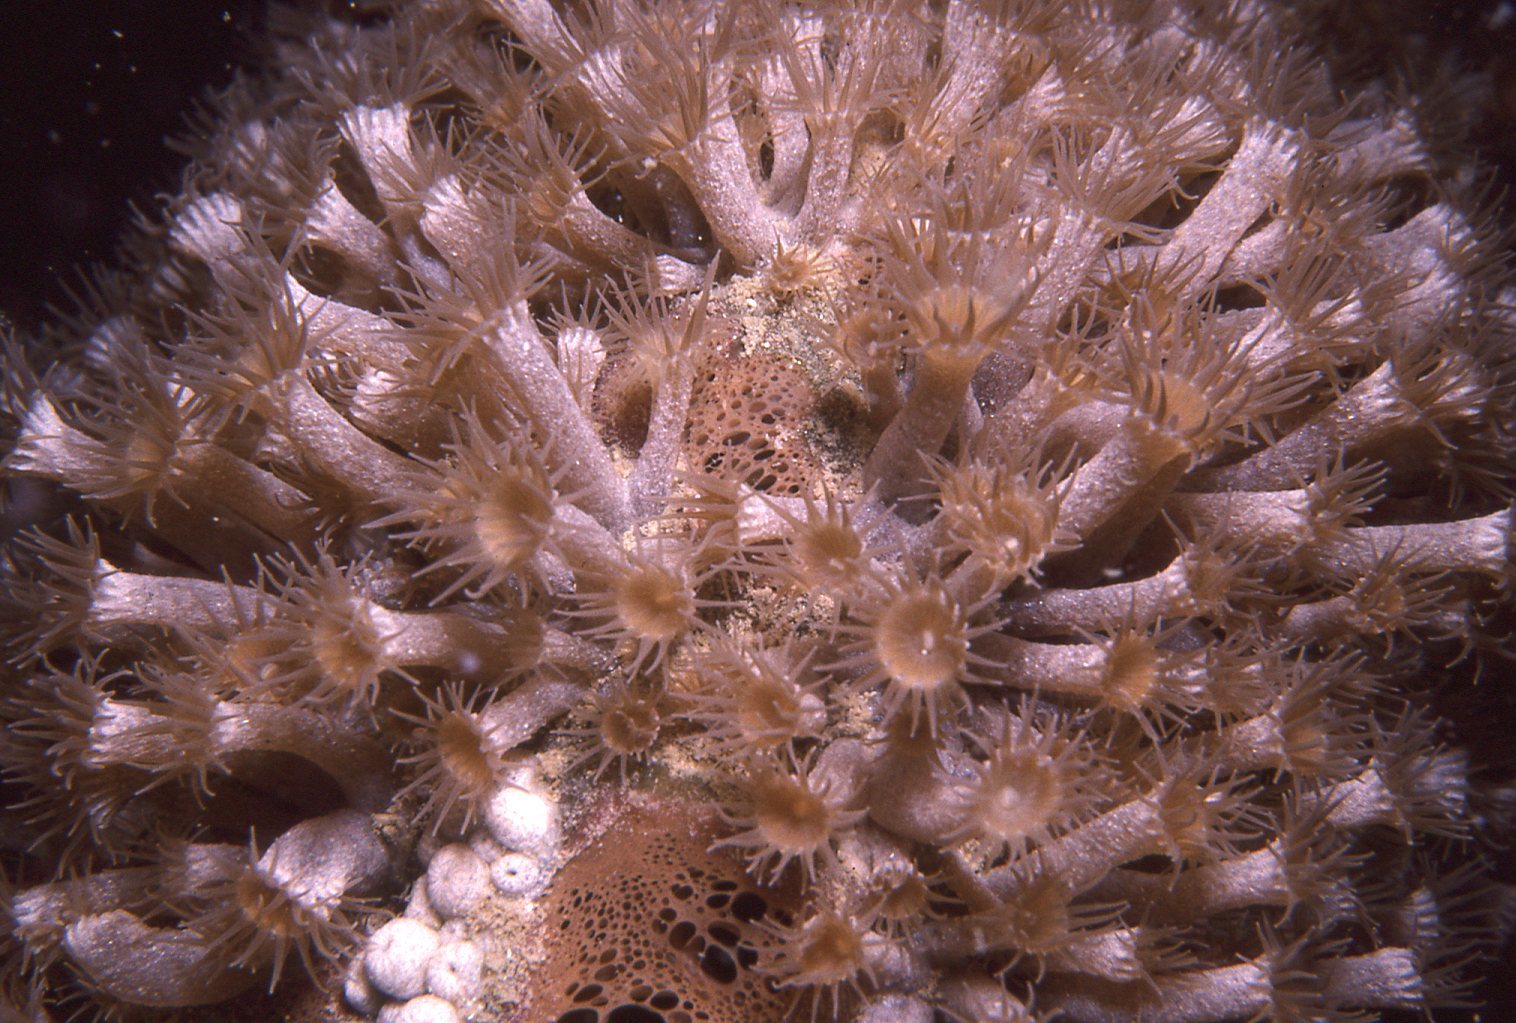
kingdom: Animalia
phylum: Cnidaria
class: Anthozoa
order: Zoantharia
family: Epizoanthidae
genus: Epizoanthus
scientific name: Epizoanthus sabulosus
